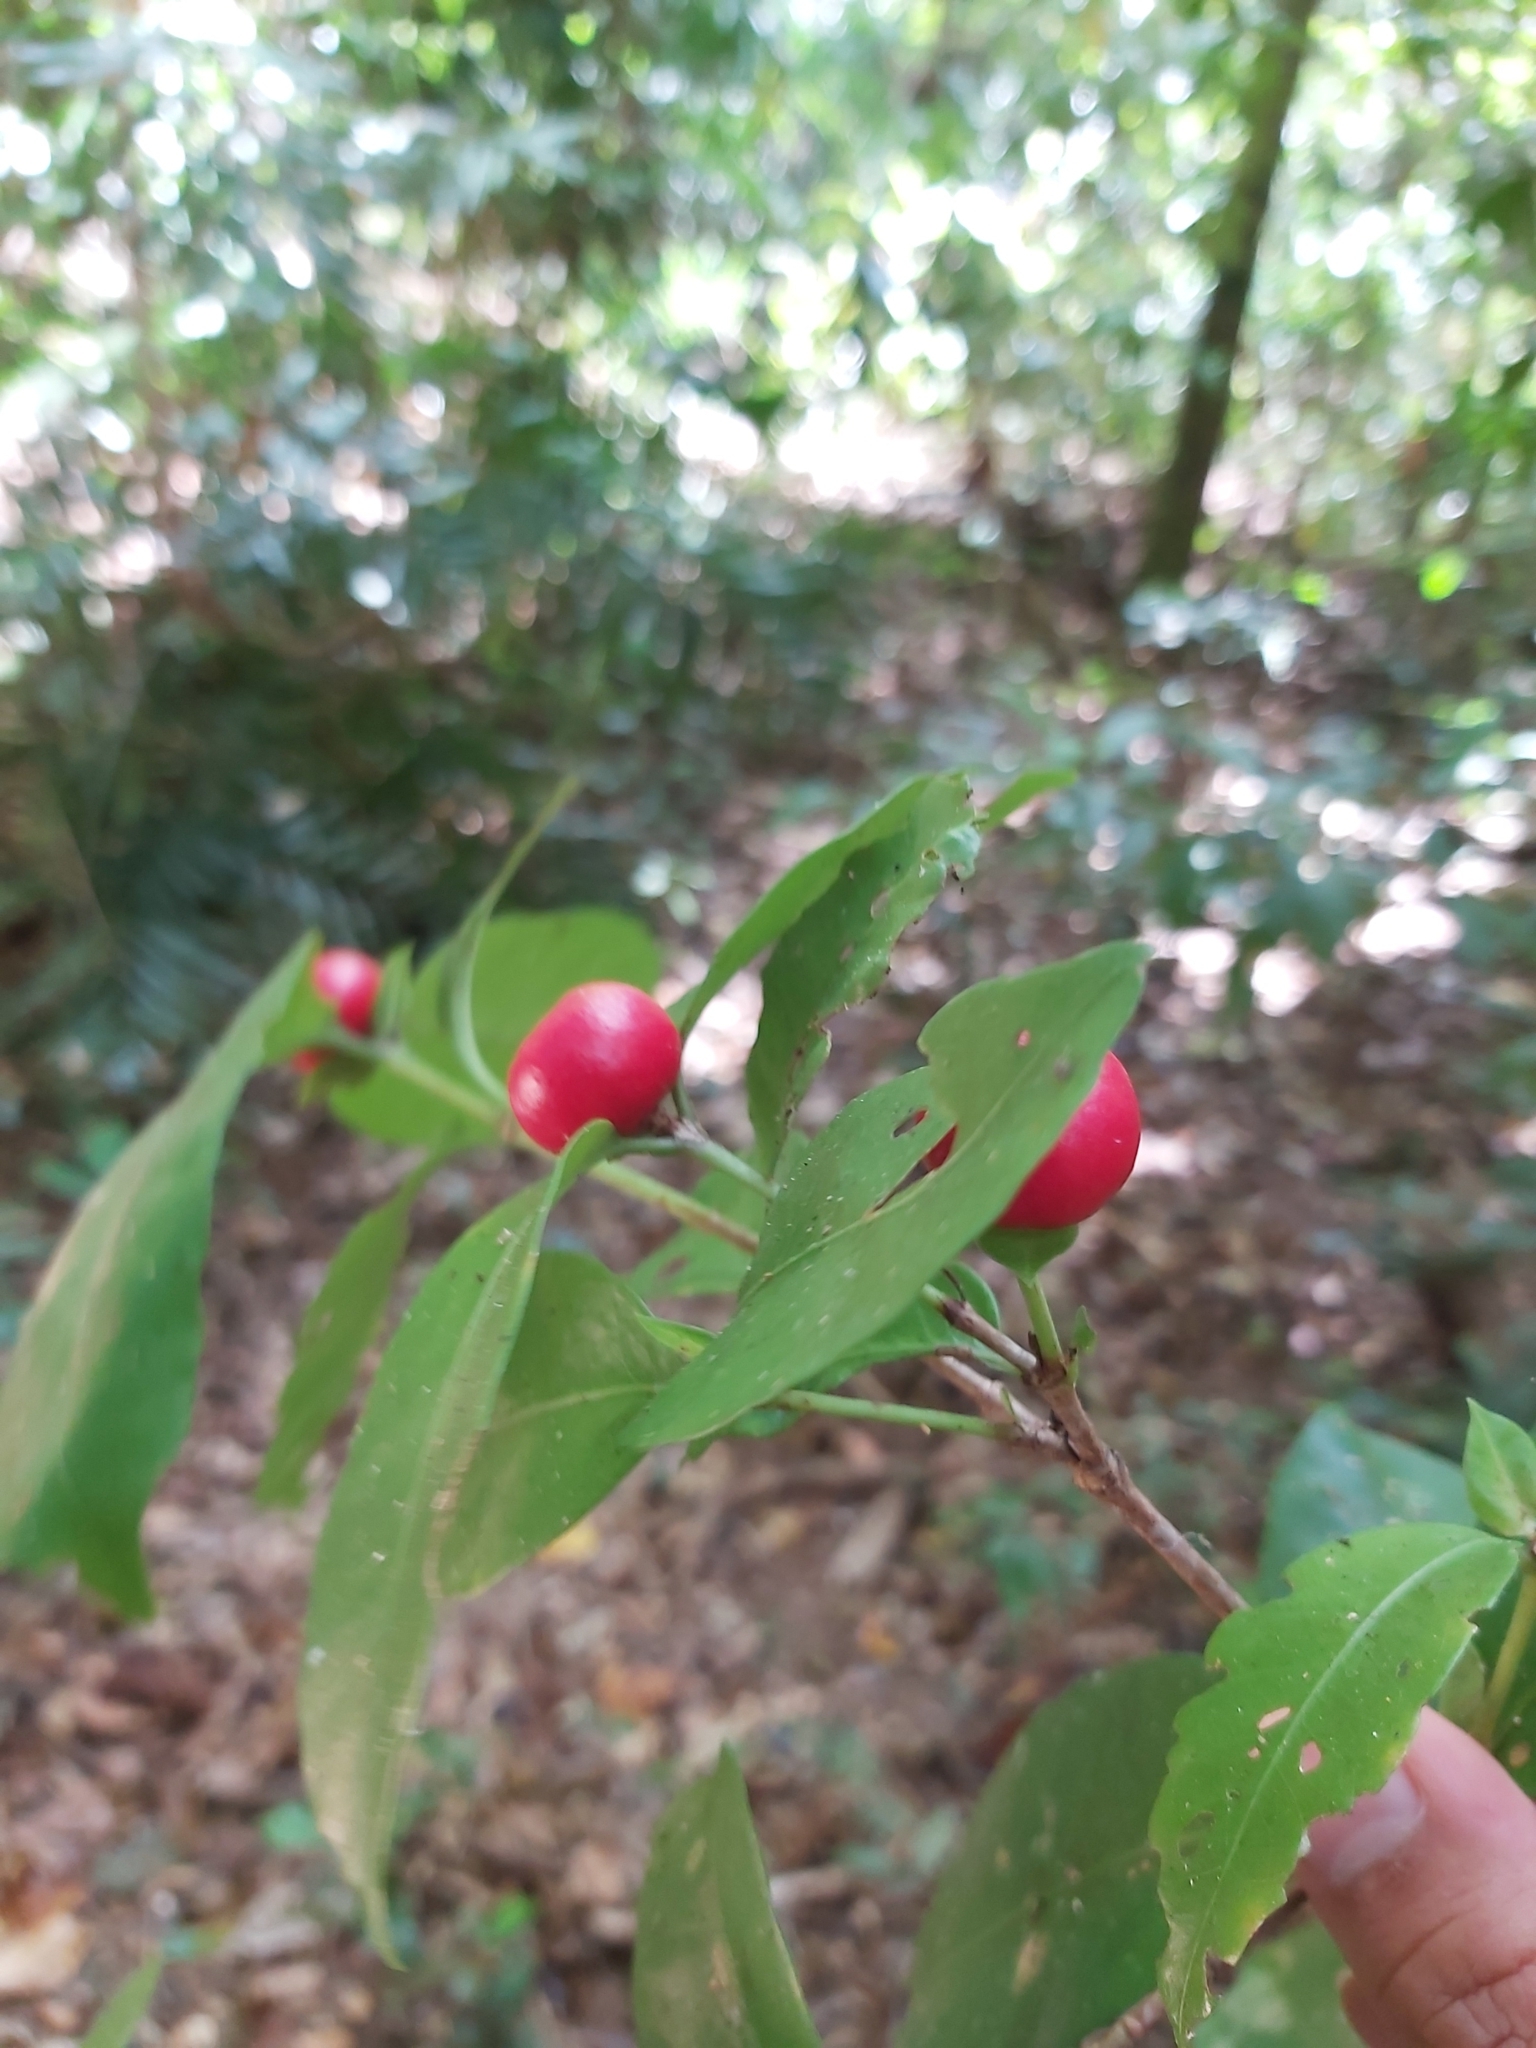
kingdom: Plantae
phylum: Tracheophyta
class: Magnoliopsida
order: Gentianales
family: Rubiaceae
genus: Ixora
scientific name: Ixora biflora
